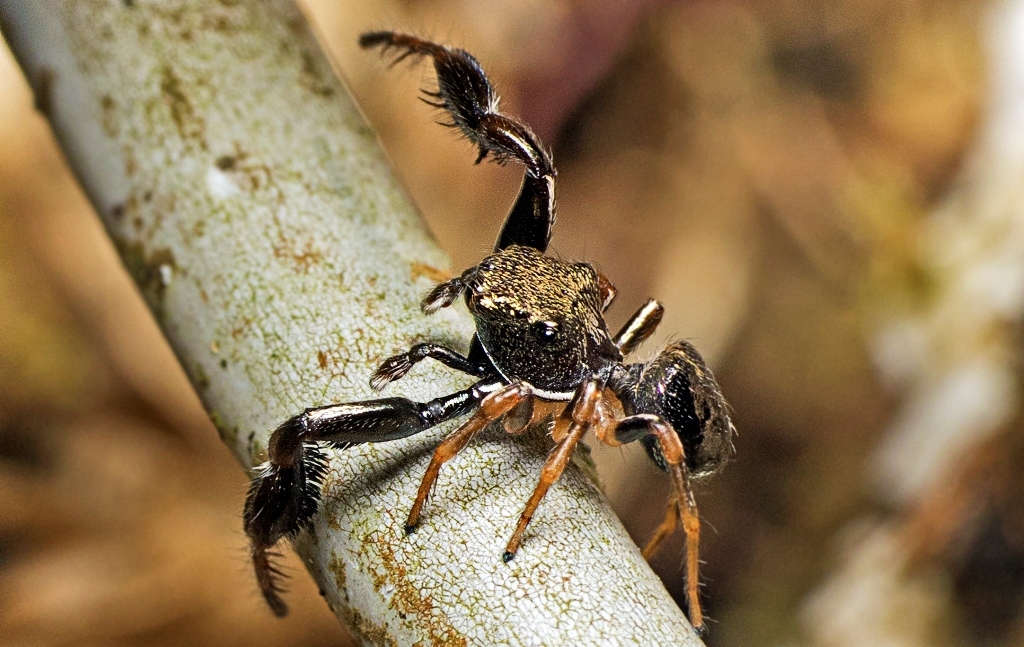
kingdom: Animalia
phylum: Arthropoda
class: Arachnida
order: Araneae
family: Salticidae
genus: Harmochirus
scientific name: Harmochirus brachiatus
